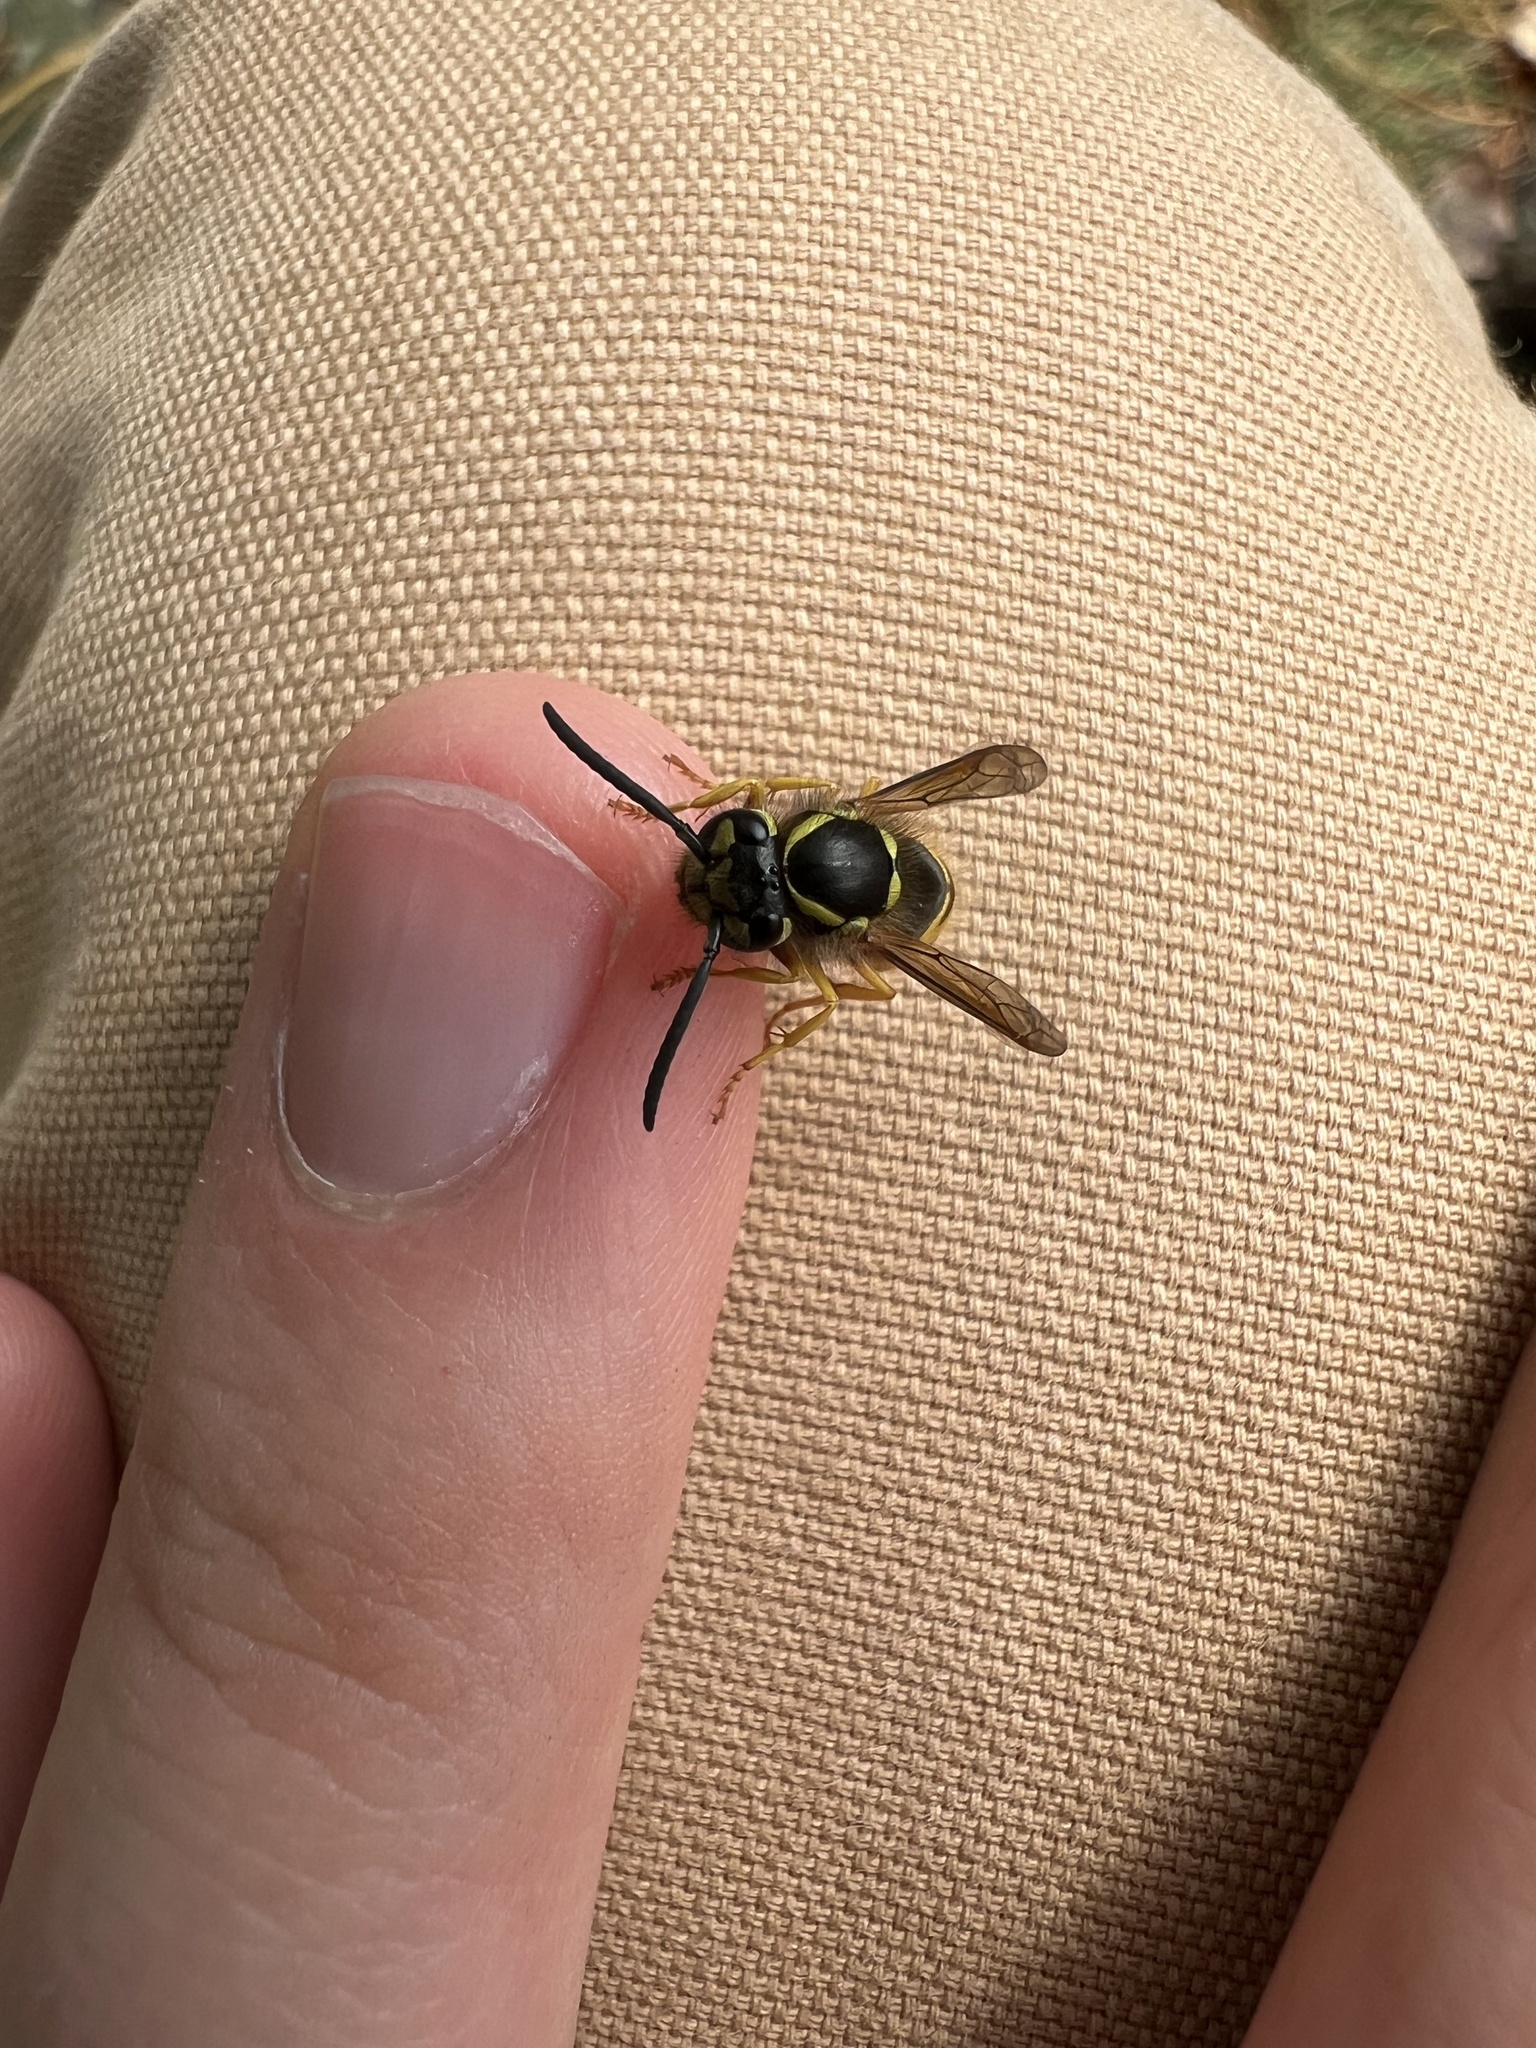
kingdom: Animalia
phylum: Arthropoda
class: Insecta
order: Hymenoptera
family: Vespidae
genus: Vespula
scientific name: Vespula maculifrons
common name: Eastern yellowjacket
